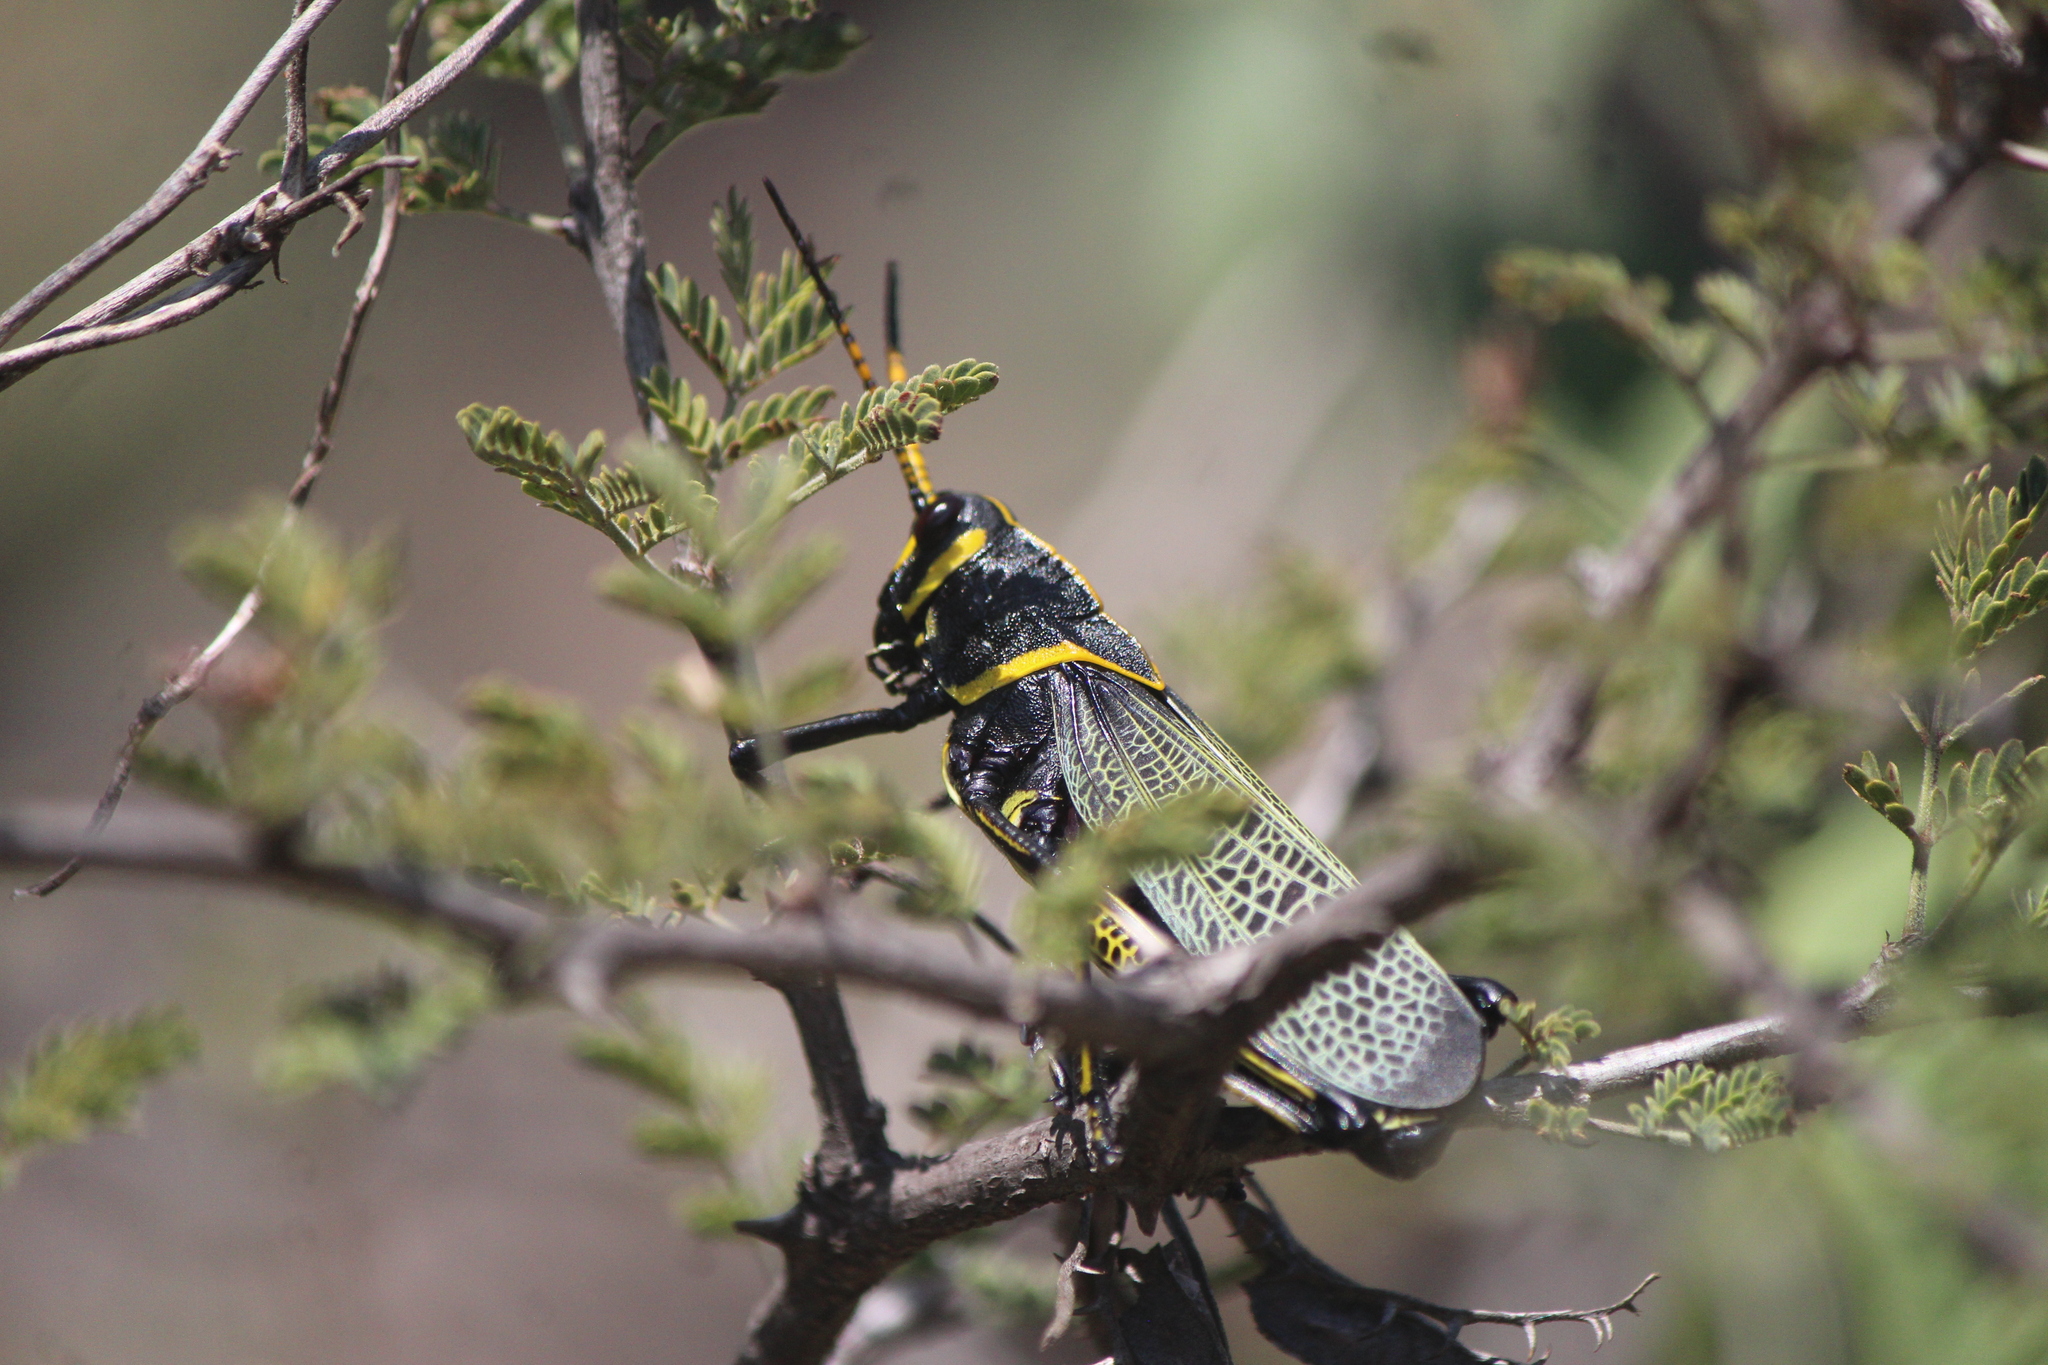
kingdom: Animalia
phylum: Arthropoda
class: Insecta
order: Orthoptera
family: Romaleidae
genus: Romalea
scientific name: Romalea
